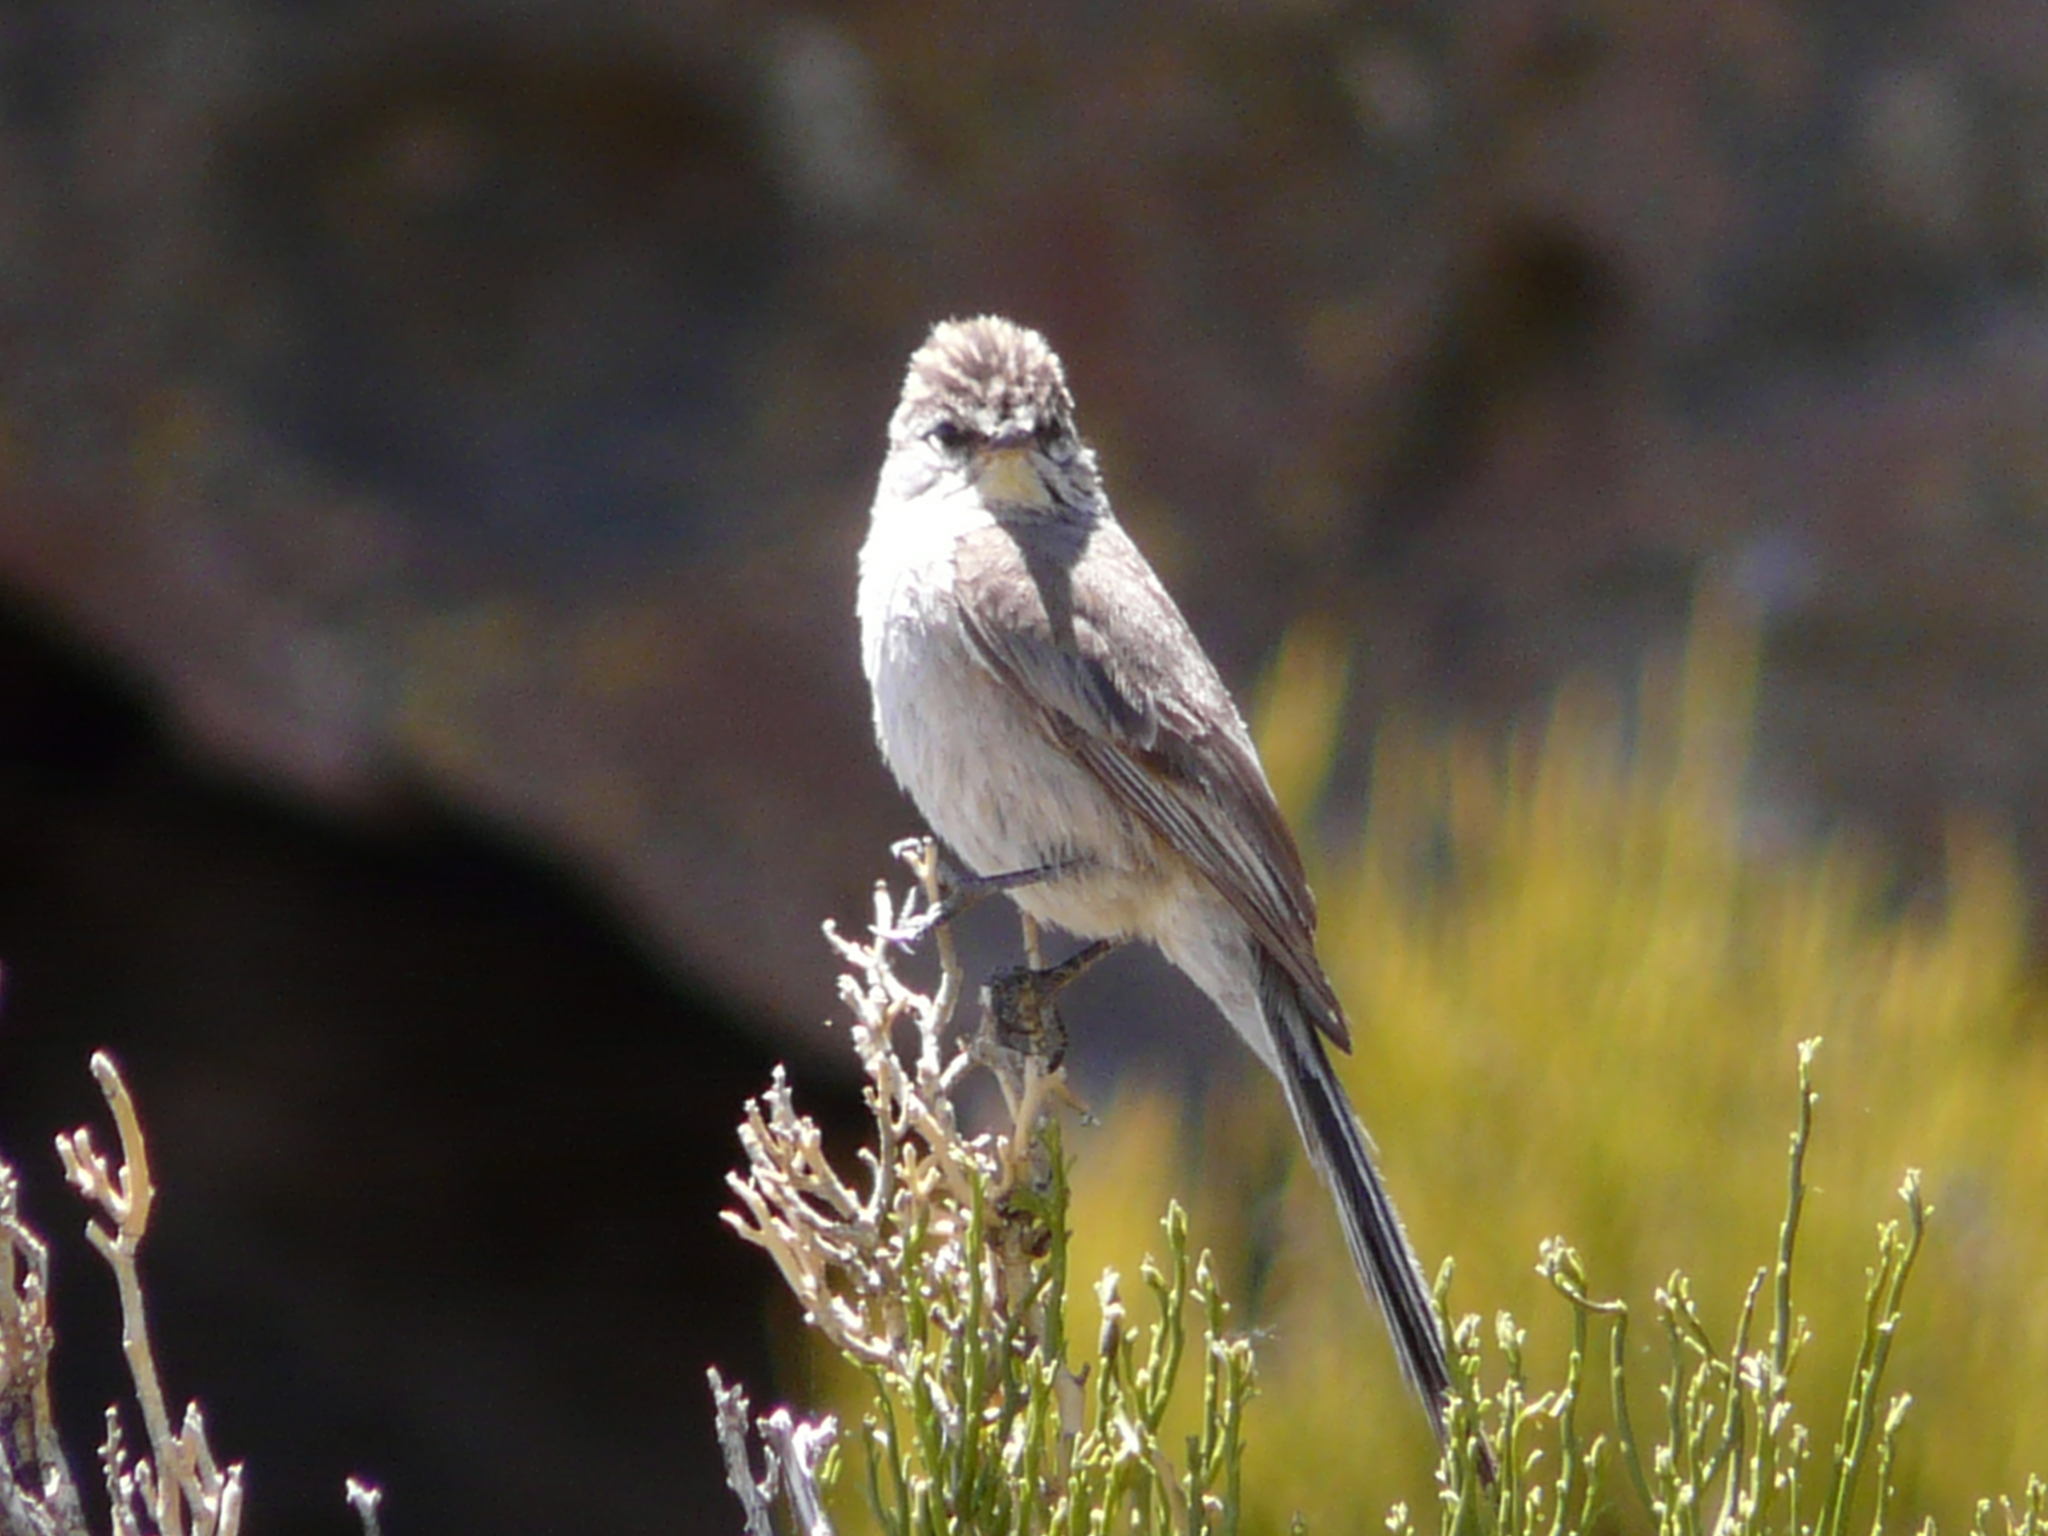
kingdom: Animalia
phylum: Chordata
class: Aves
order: Passeriformes
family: Furnariidae
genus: Leptasthenura
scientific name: Leptasthenura aegithaloides
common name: Plain-mantled tit-spinetail
